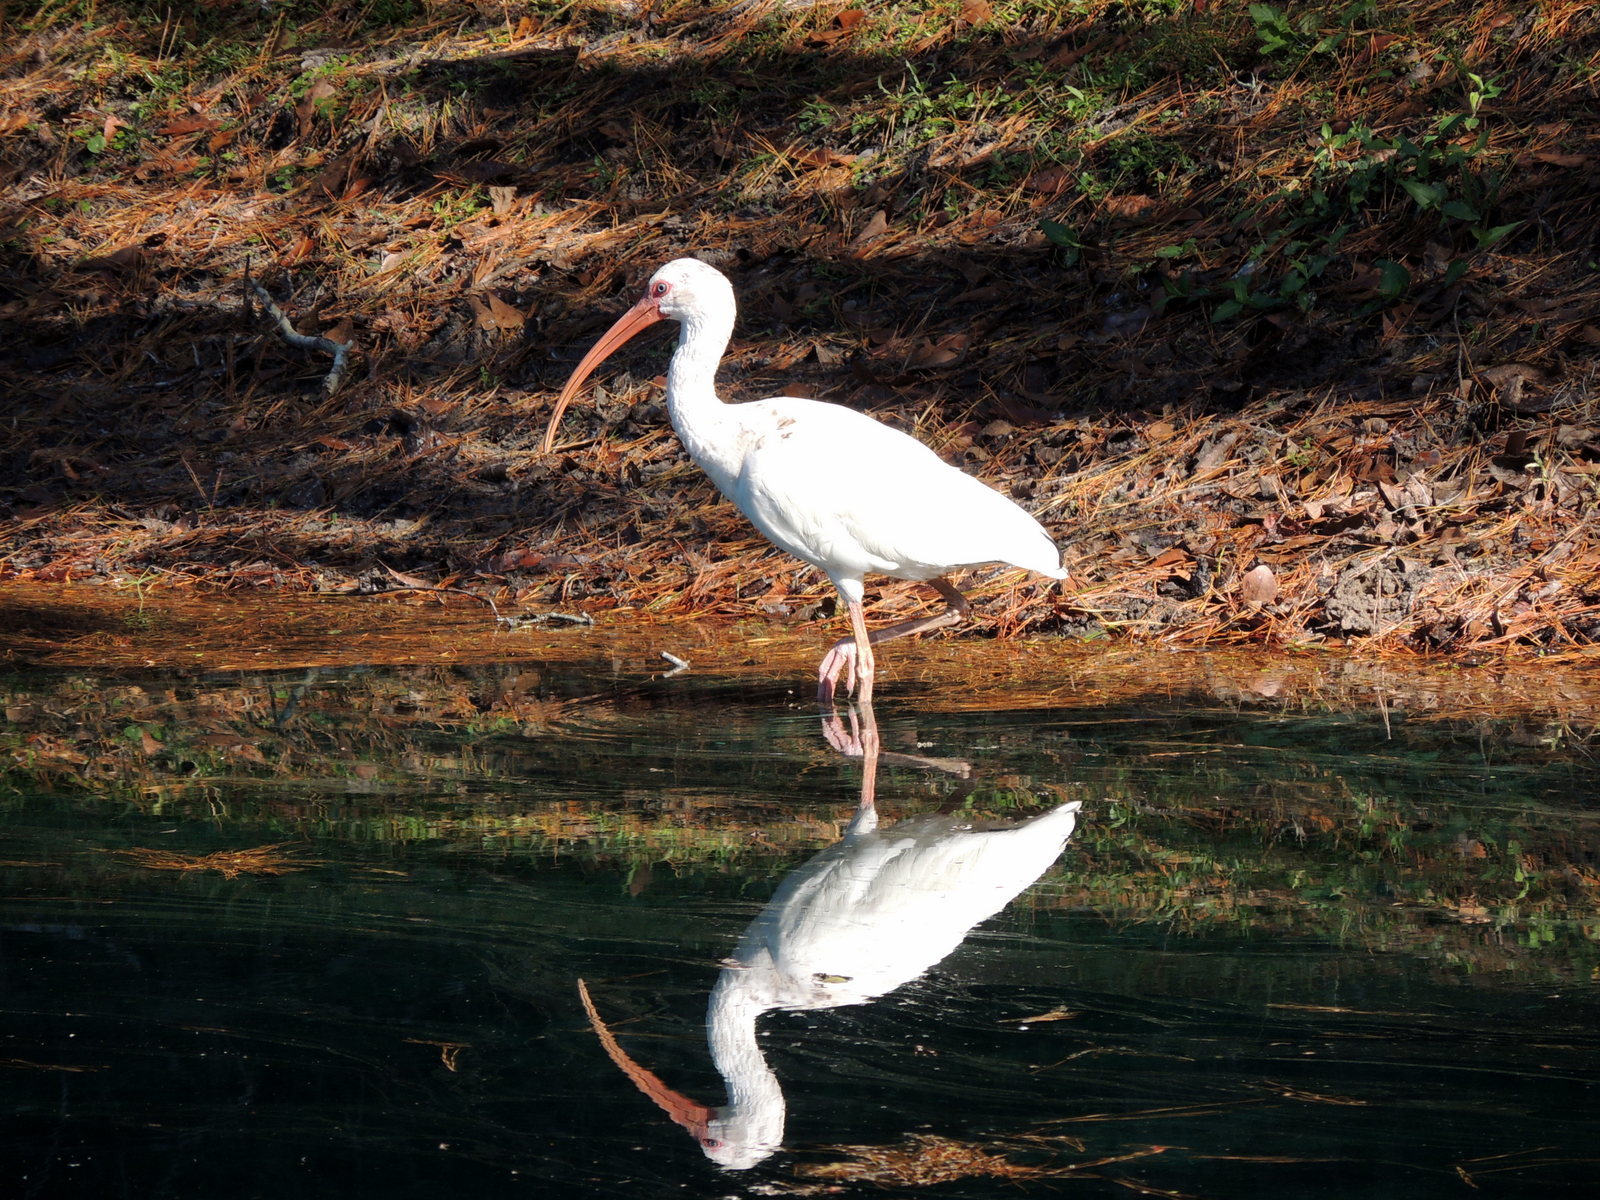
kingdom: Animalia
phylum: Chordata
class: Aves
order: Pelecaniformes
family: Threskiornithidae
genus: Eudocimus
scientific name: Eudocimus albus
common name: White ibis
